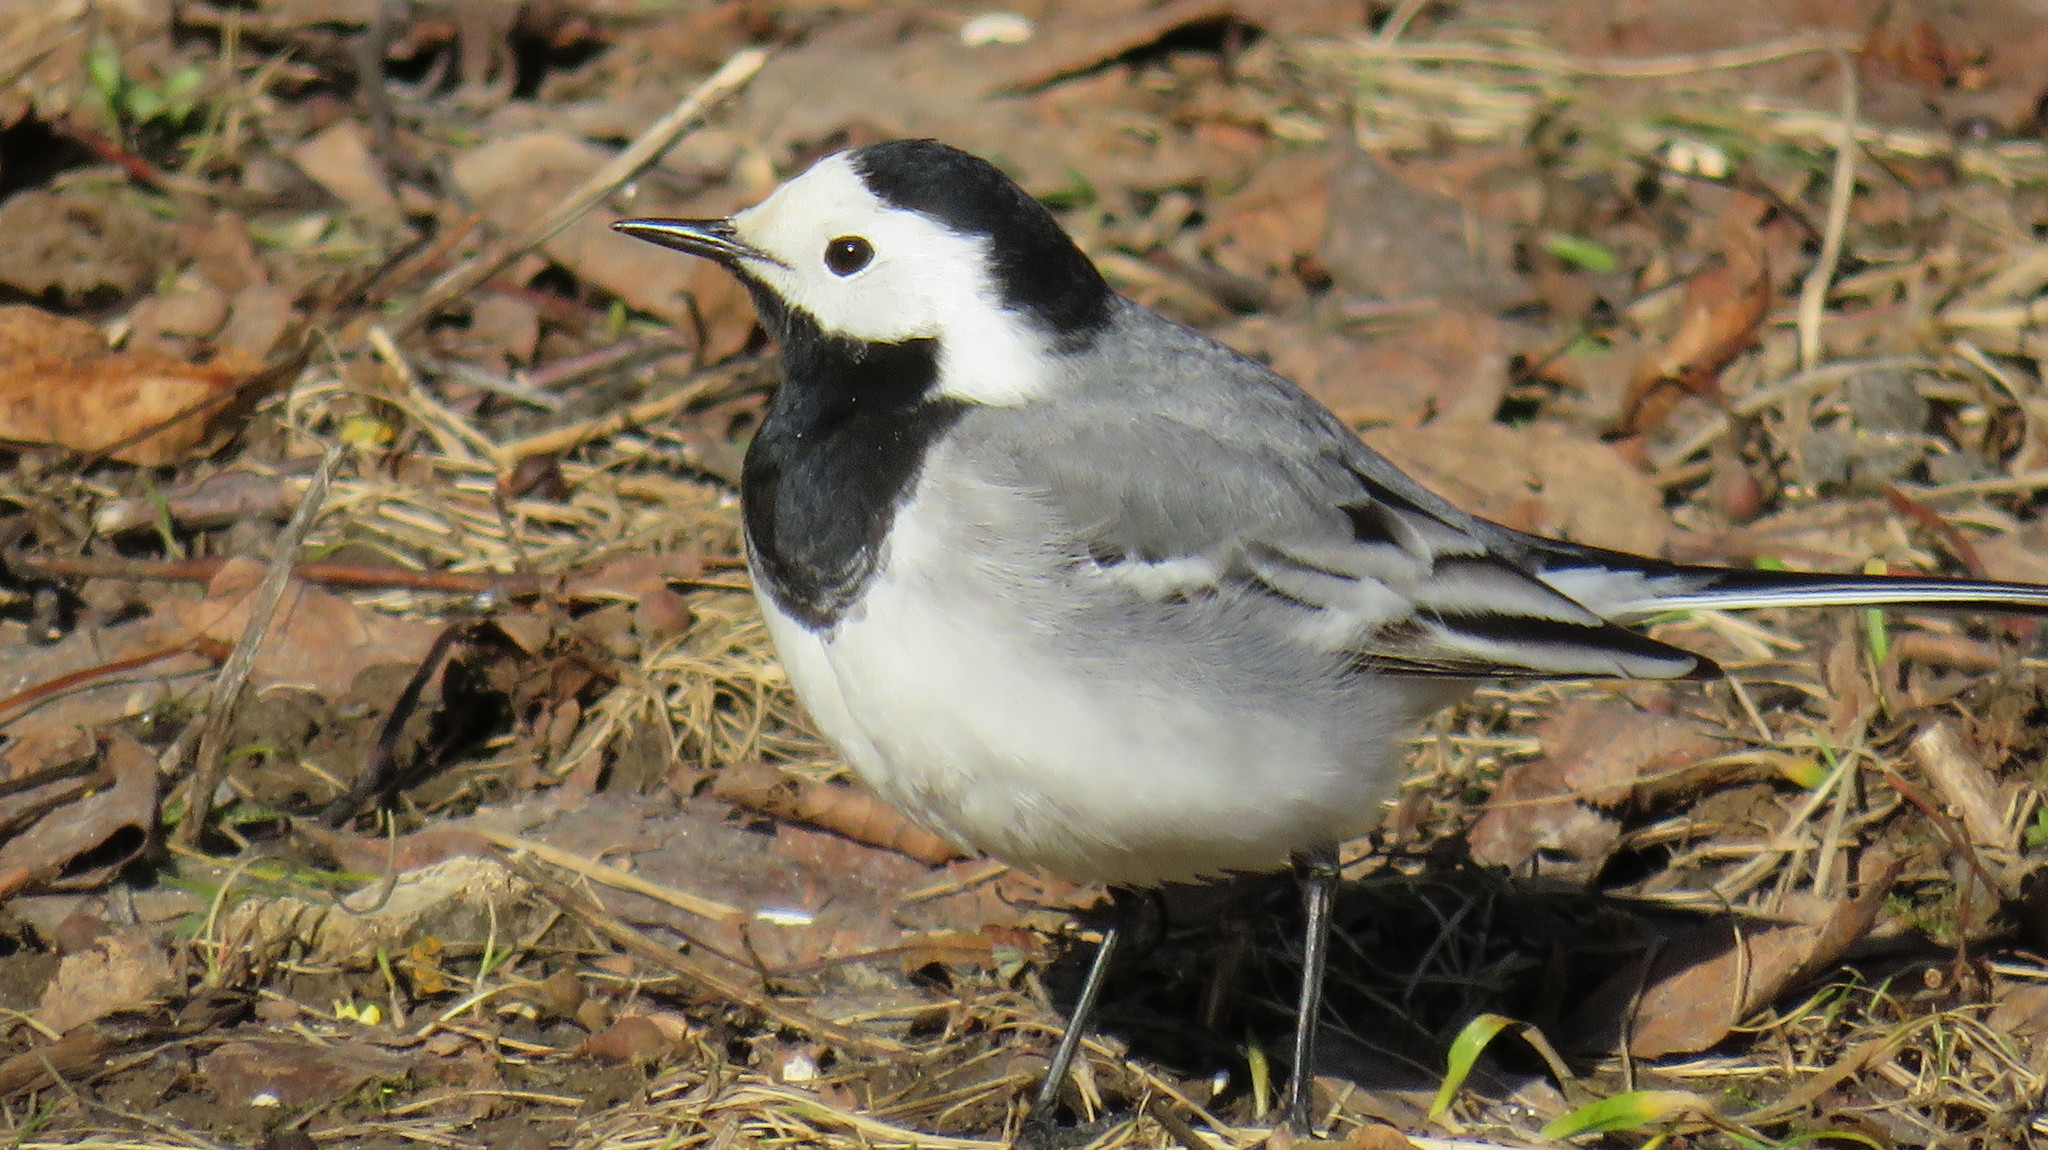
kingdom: Animalia
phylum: Chordata
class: Aves
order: Passeriformes
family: Motacillidae
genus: Motacilla
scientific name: Motacilla alba
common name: White wagtail
